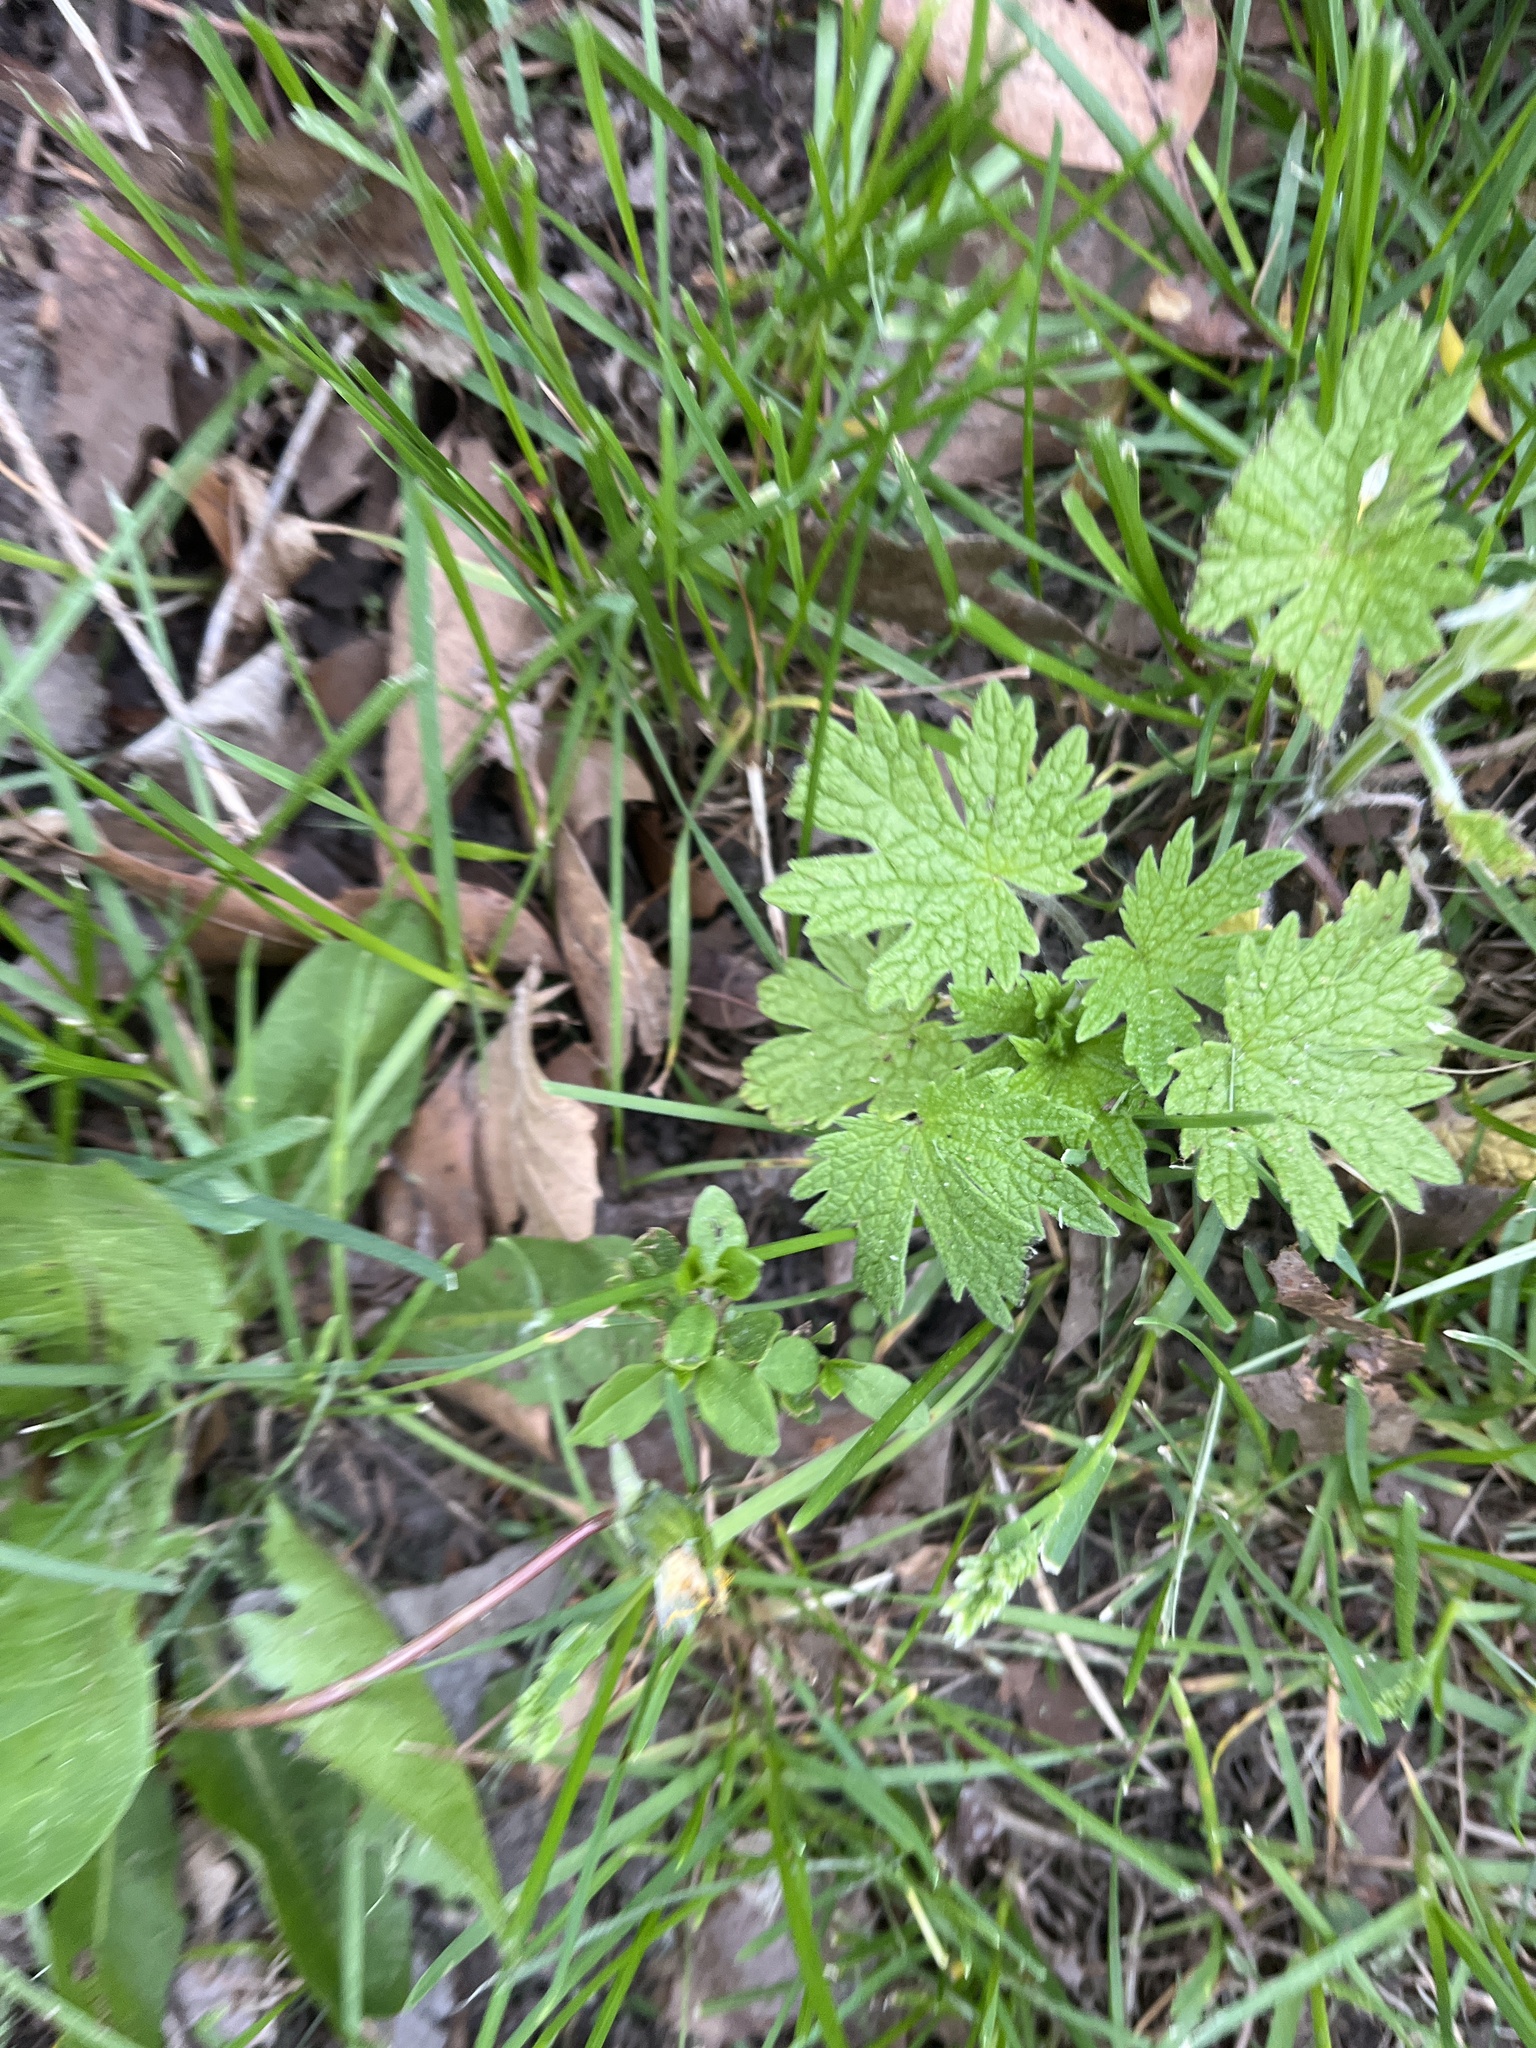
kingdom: Plantae
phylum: Tracheophyta
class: Magnoliopsida
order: Lamiales
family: Lamiaceae
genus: Leonurus
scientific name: Leonurus cardiaca
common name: Motherwort
